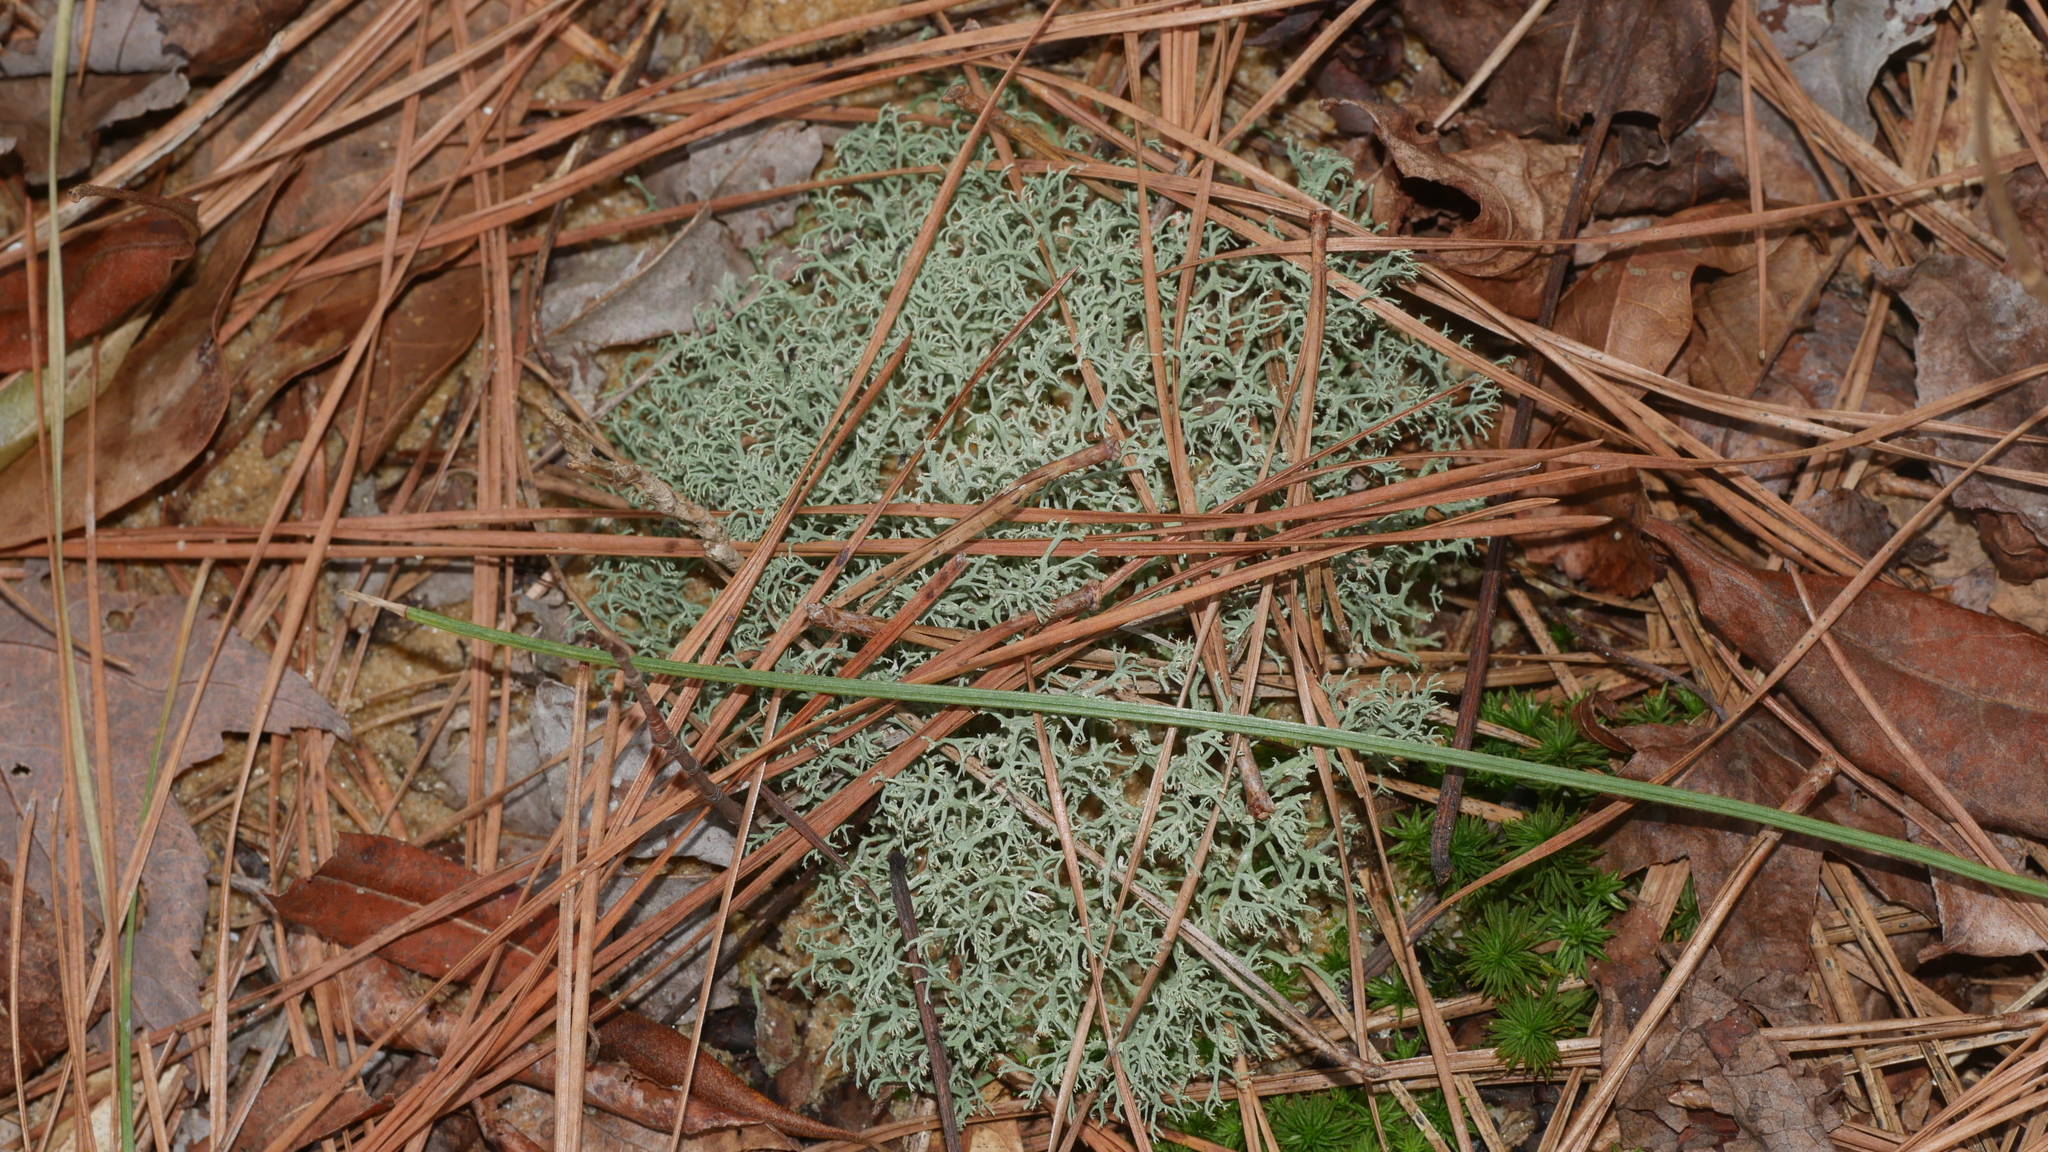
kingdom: Fungi
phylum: Ascomycota
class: Lecanoromycetes
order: Lecanorales
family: Cladoniaceae
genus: Cladonia
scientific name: Cladonia subtenuis
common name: Dixie reindeer lichen
